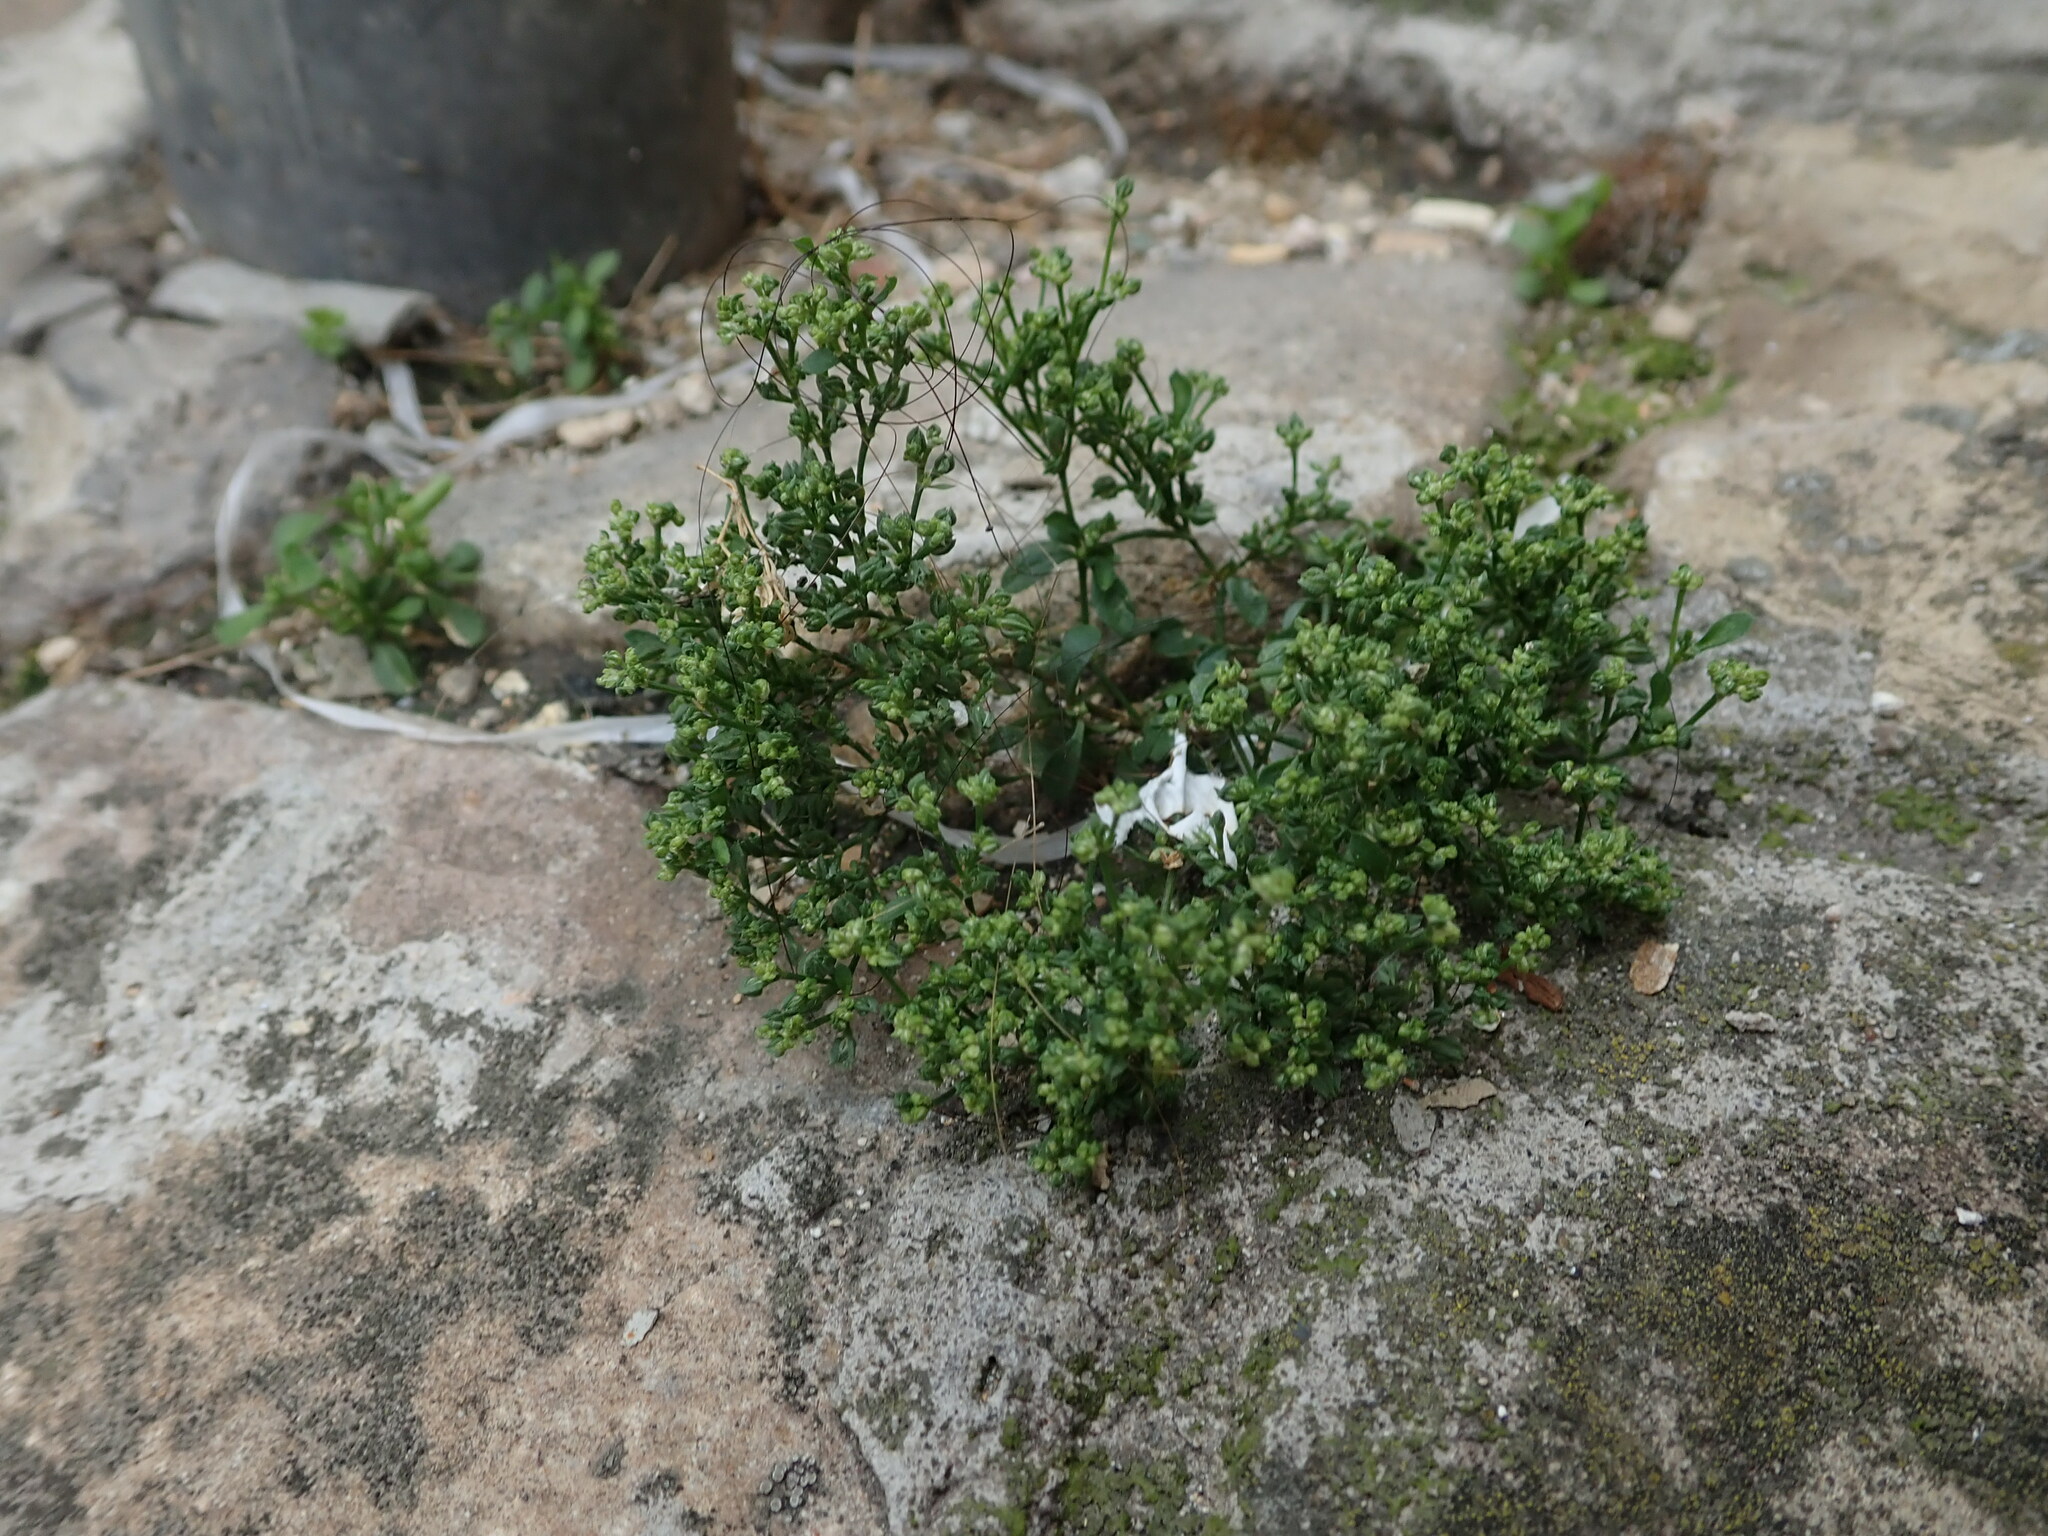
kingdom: Plantae
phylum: Tracheophyta
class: Magnoliopsida
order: Caryophyllales
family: Caryophyllaceae
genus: Polycarpon
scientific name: Polycarpon tetraphyllum
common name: Four-leaved all-seed
